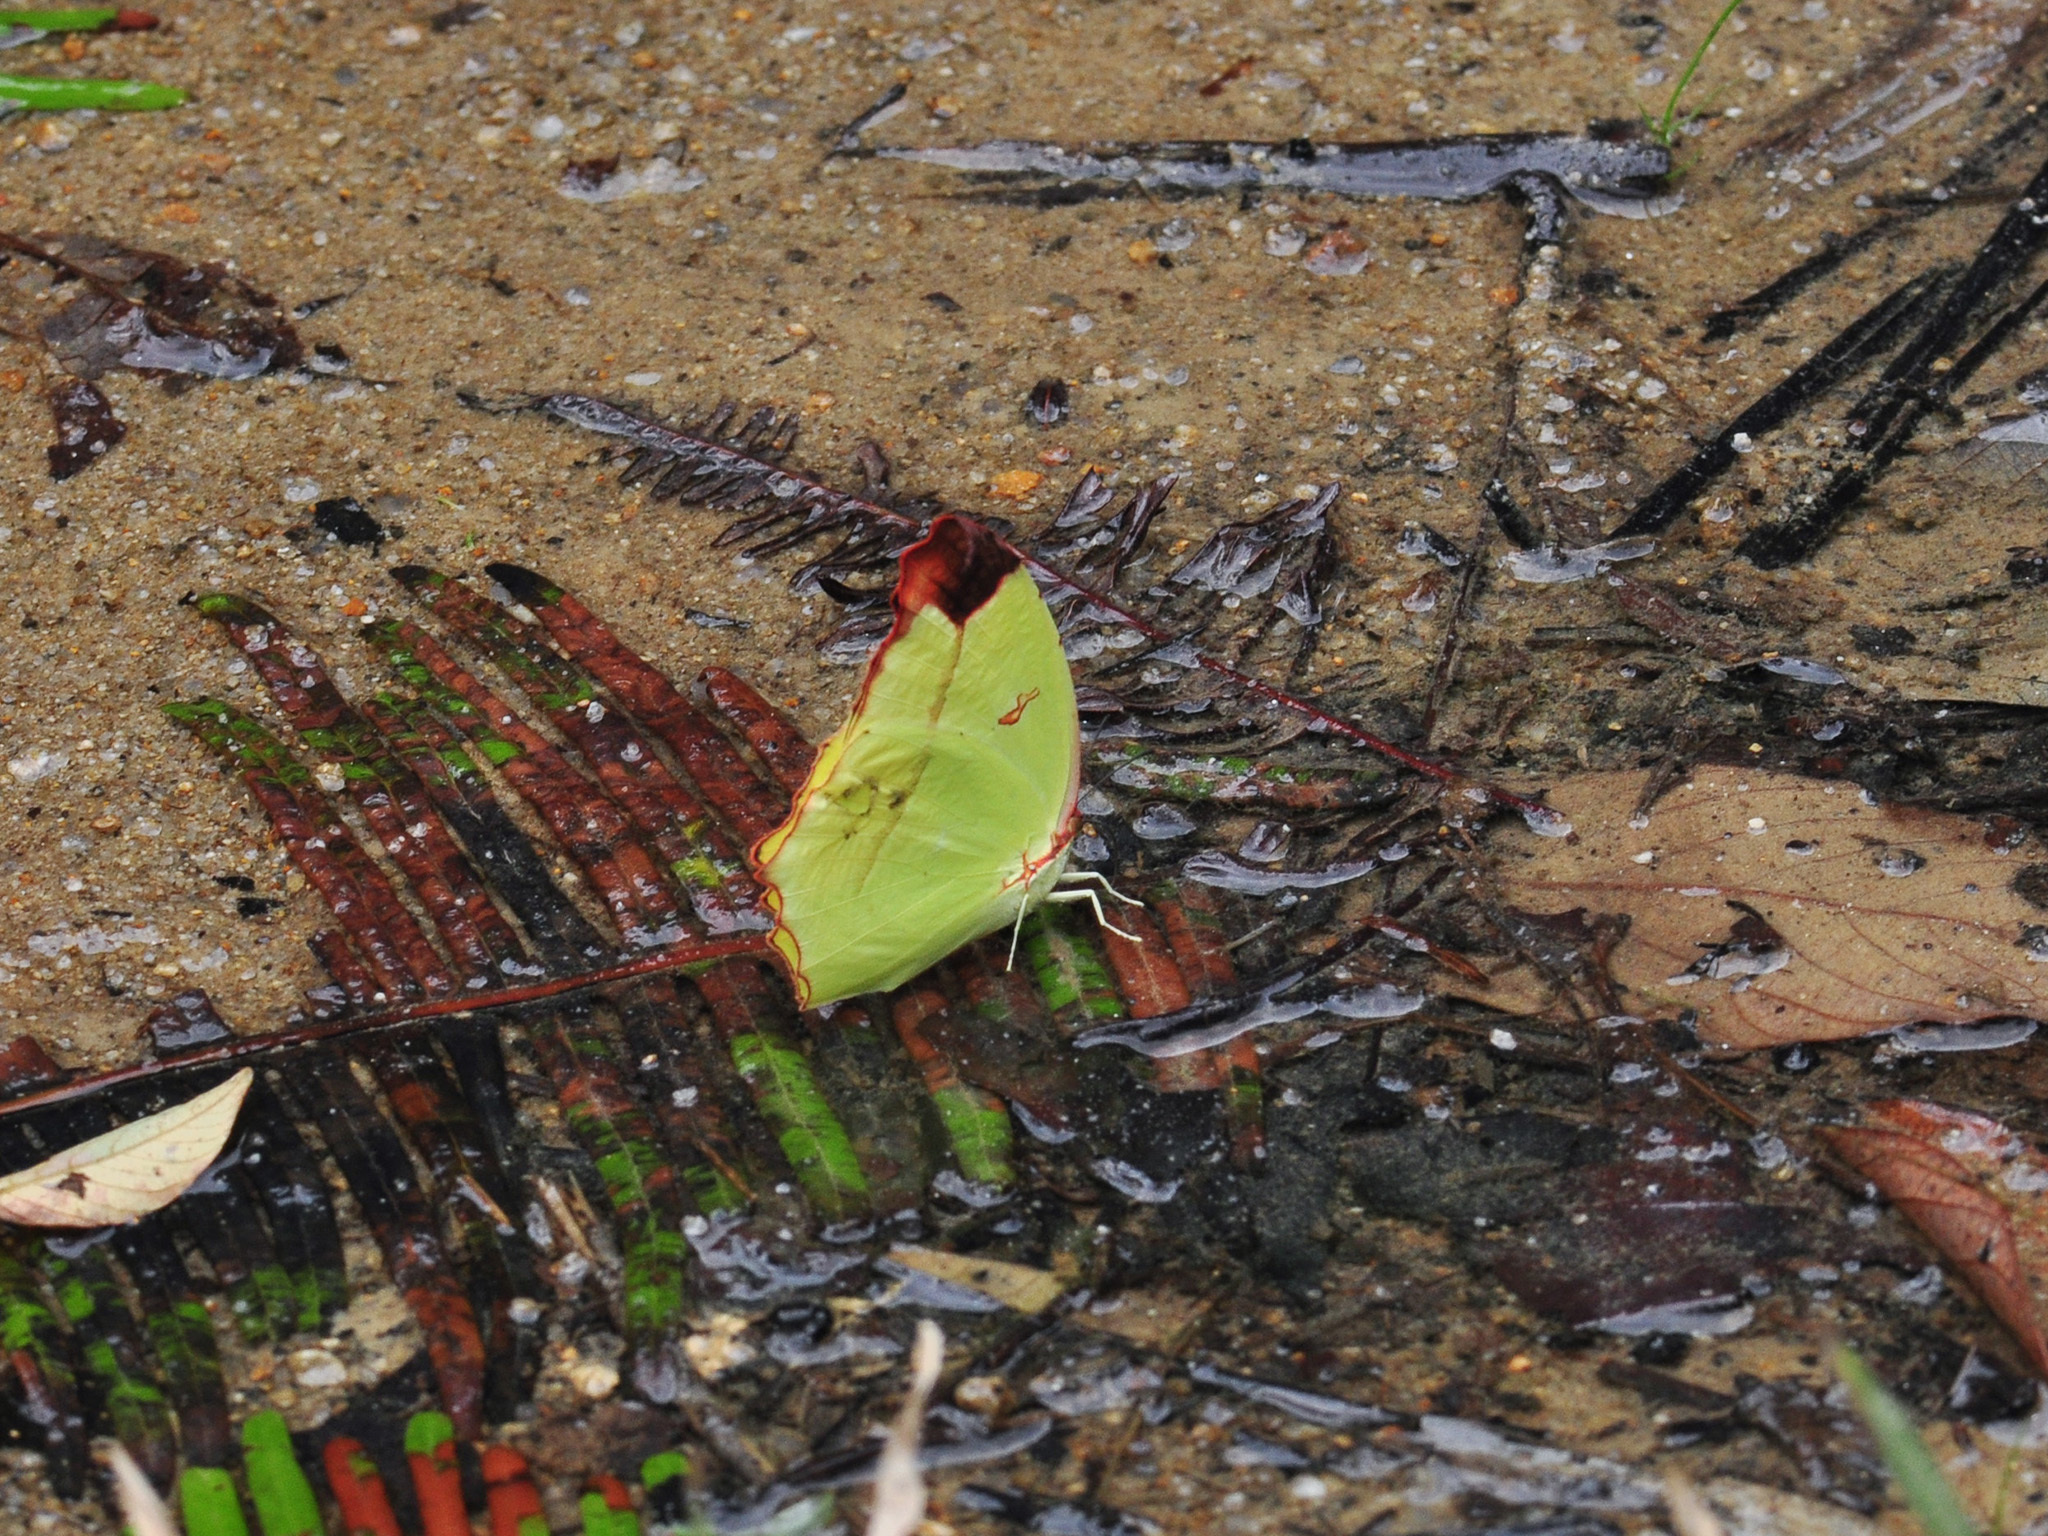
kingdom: Animalia
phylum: Arthropoda
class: Insecta
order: Lepidoptera
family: Pieridae
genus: Dercas
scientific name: Dercas gobrias
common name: Angled sulfur
